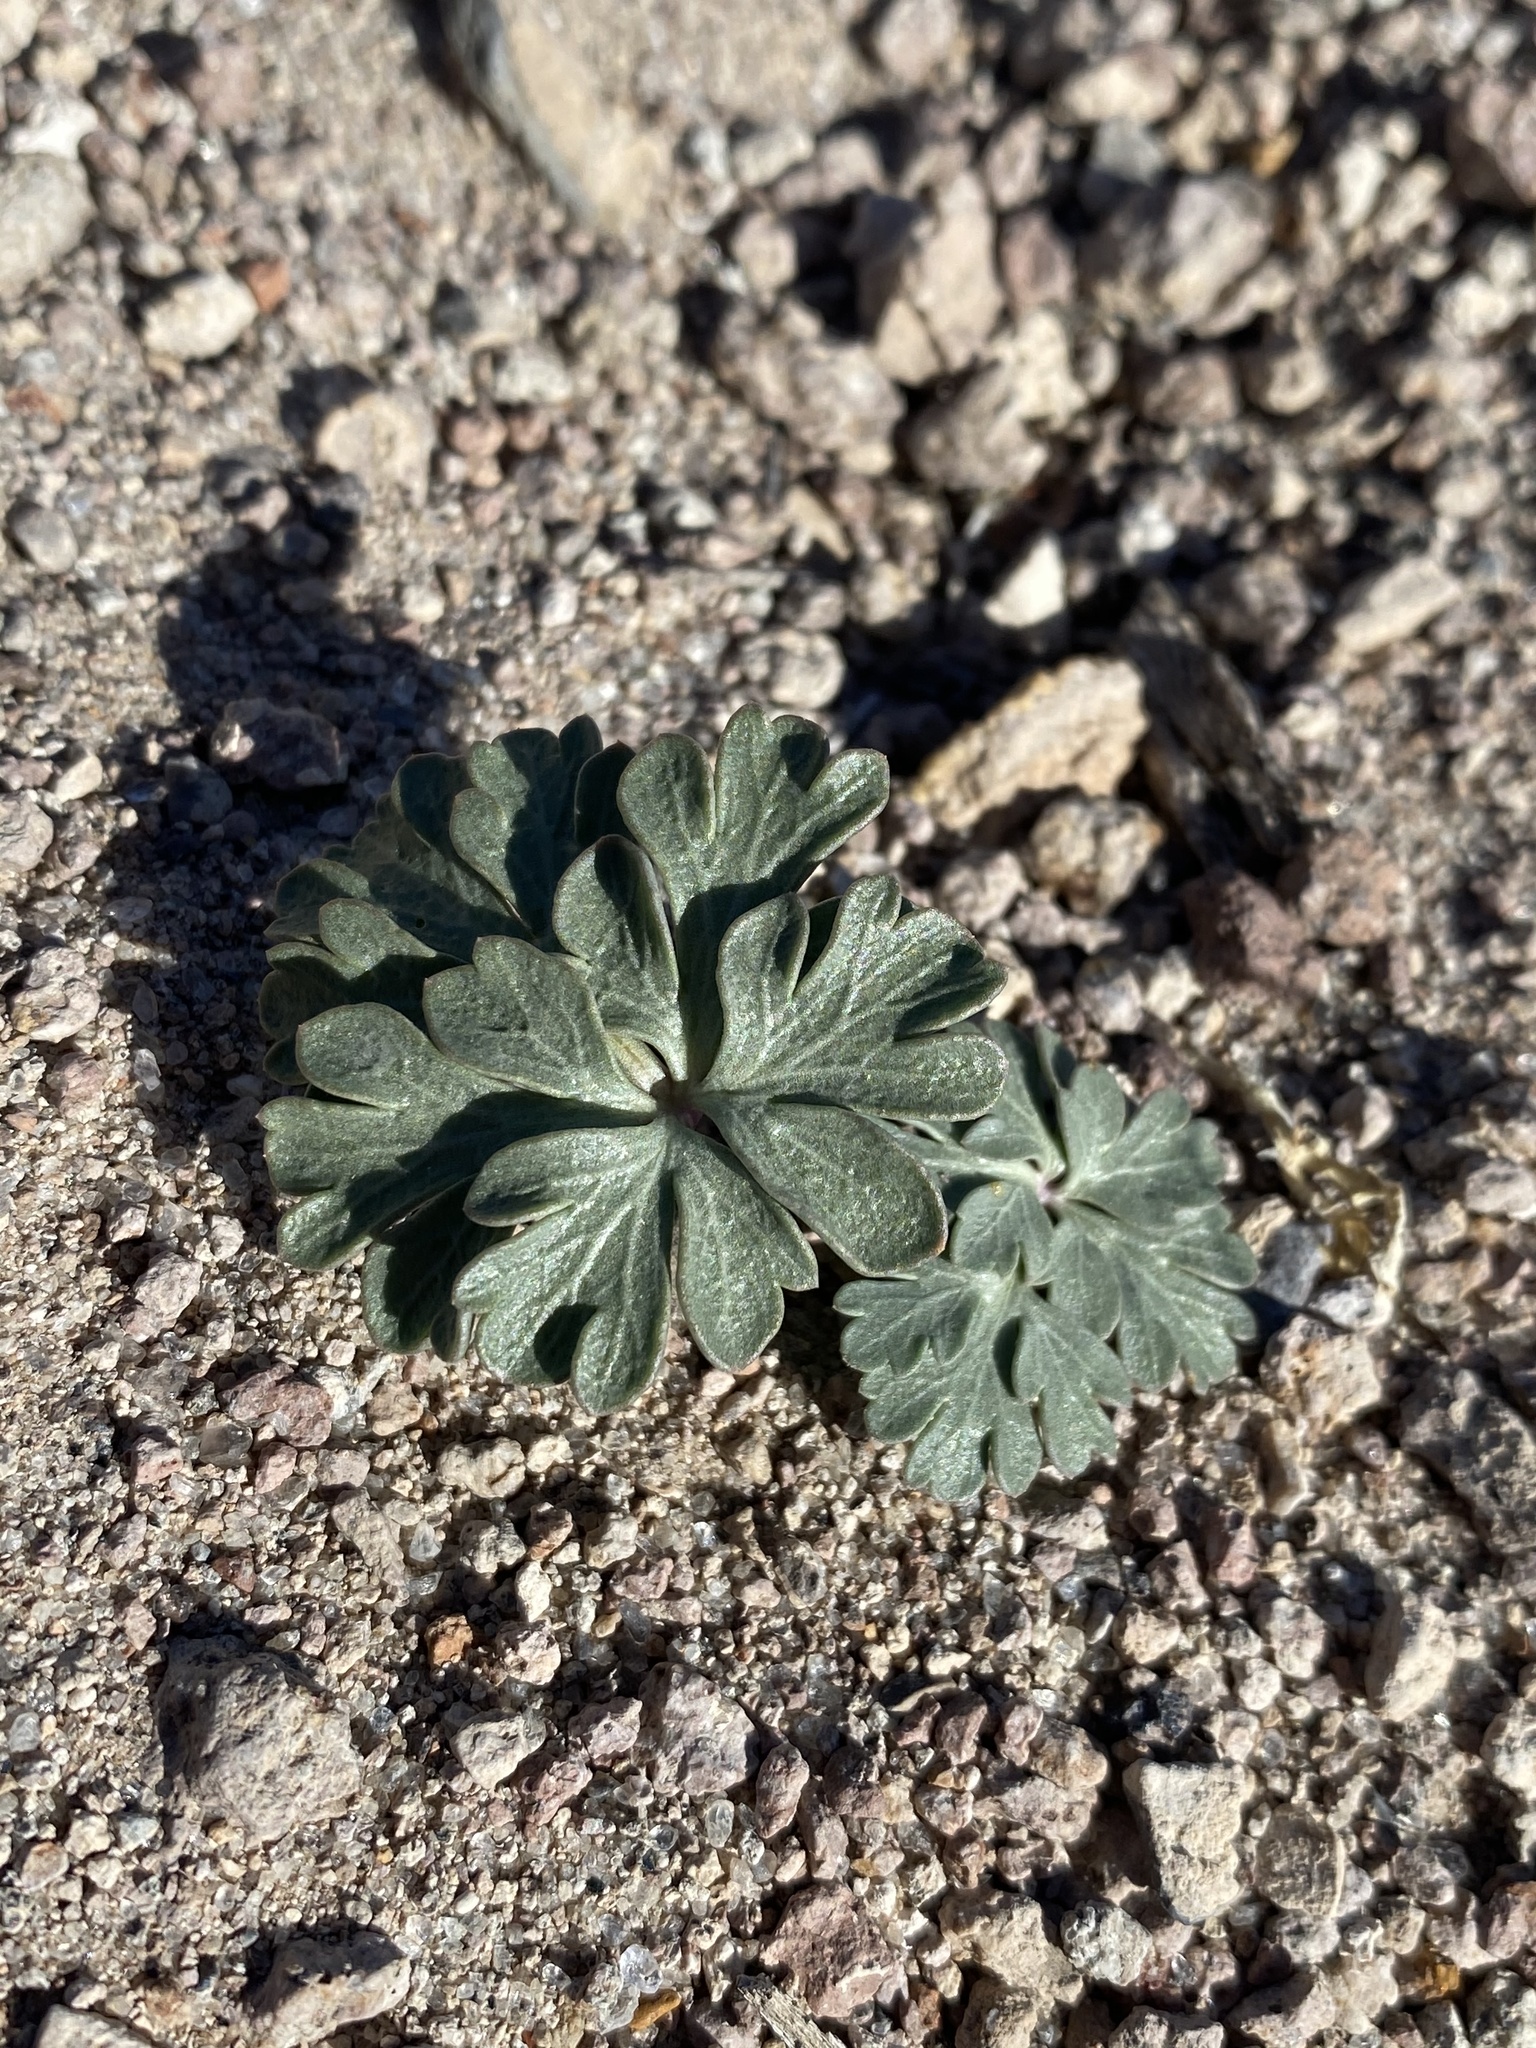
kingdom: Plantae
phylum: Tracheophyta
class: Magnoliopsida
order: Apiales
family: Apiaceae
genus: Cymopterus
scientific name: Cymopterus ripleyi
